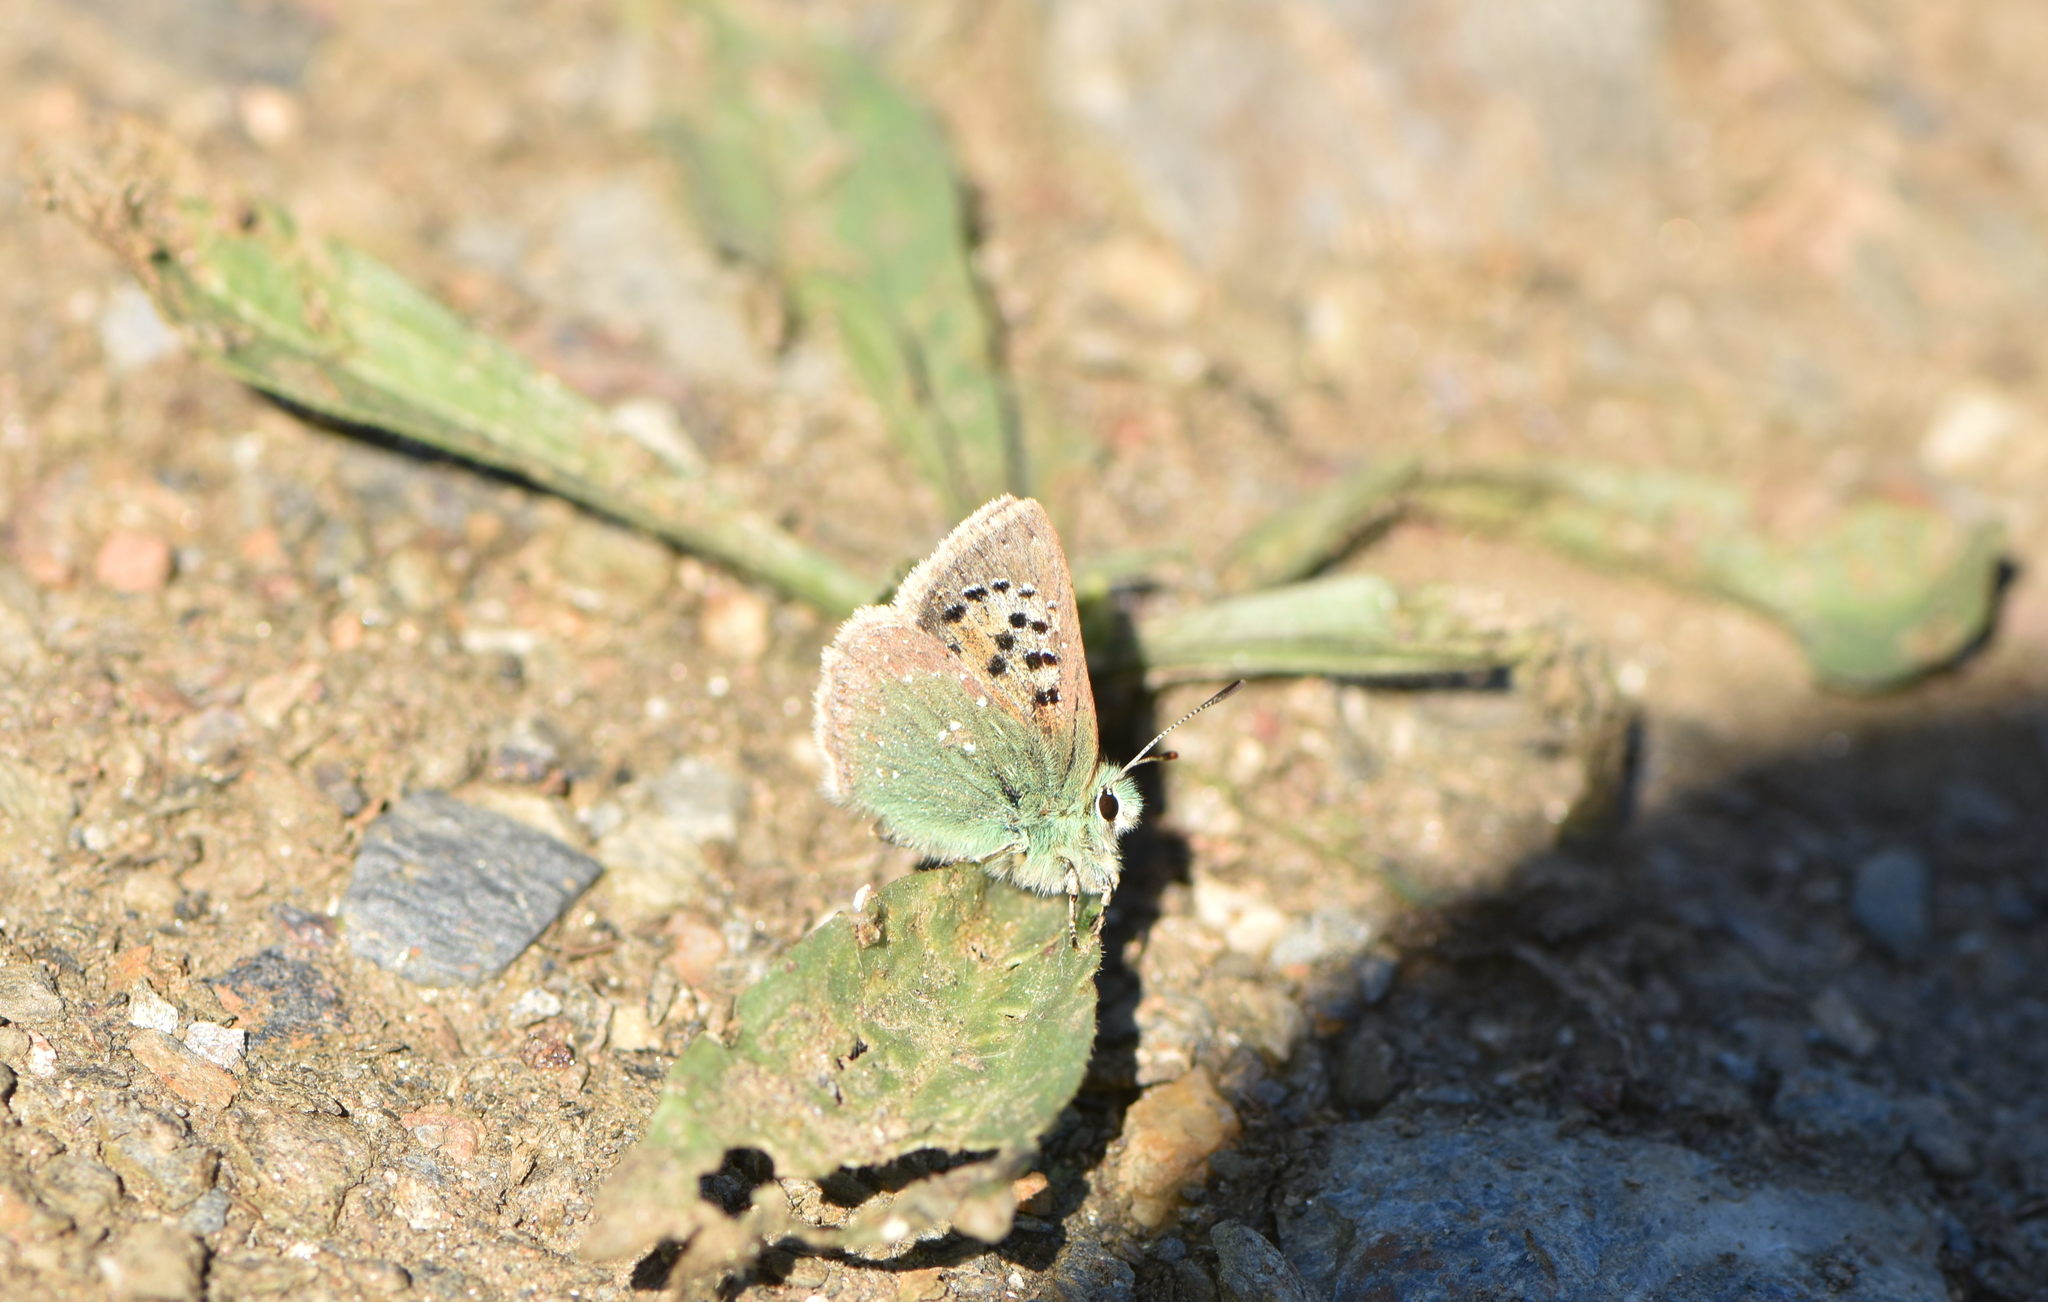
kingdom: Animalia
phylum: Arthropoda
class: Insecta
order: Lepidoptera
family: Lycaenidae
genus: Tomares
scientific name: Tomares ballus
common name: Provence hairstreak
